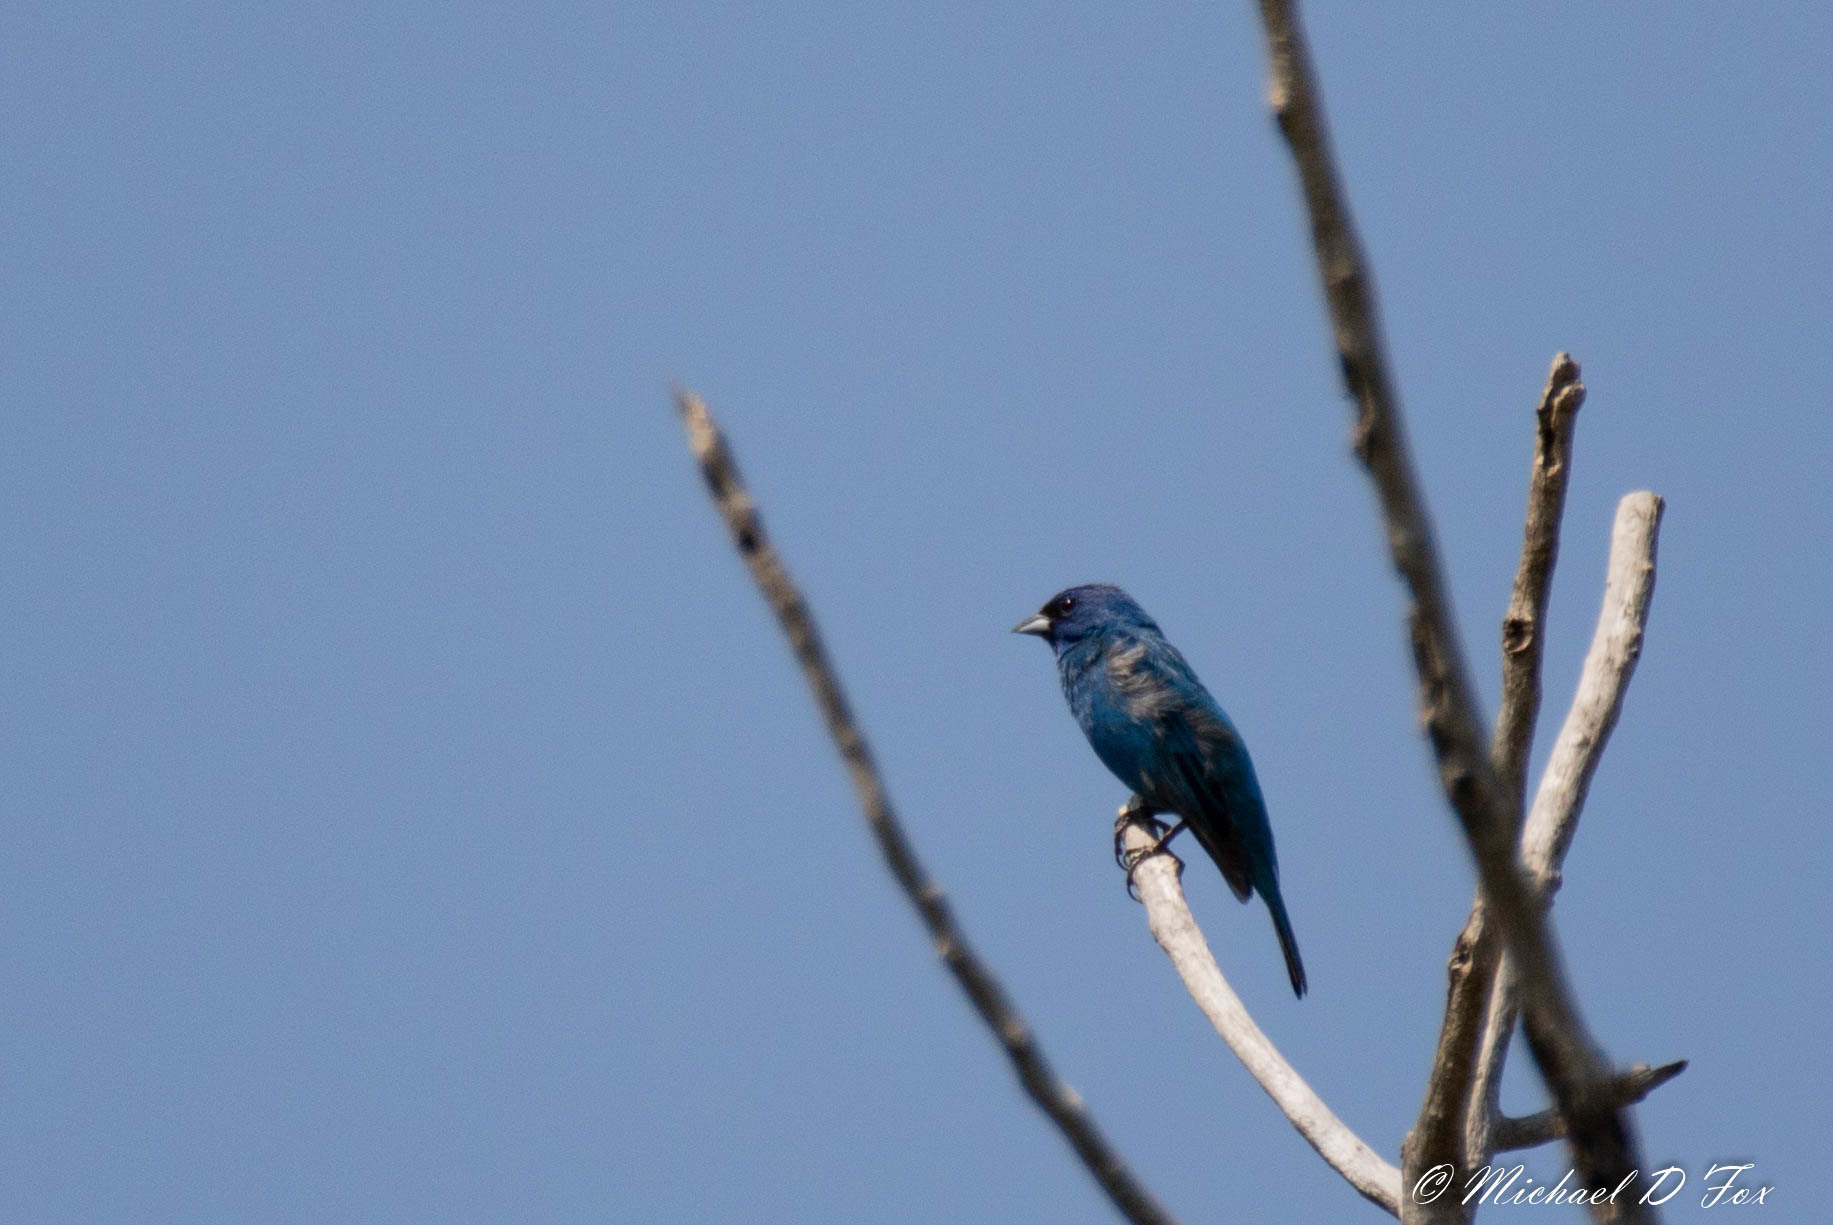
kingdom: Animalia
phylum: Chordata
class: Aves
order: Passeriformes
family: Cardinalidae
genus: Passerina
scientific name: Passerina cyanea
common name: Indigo bunting
